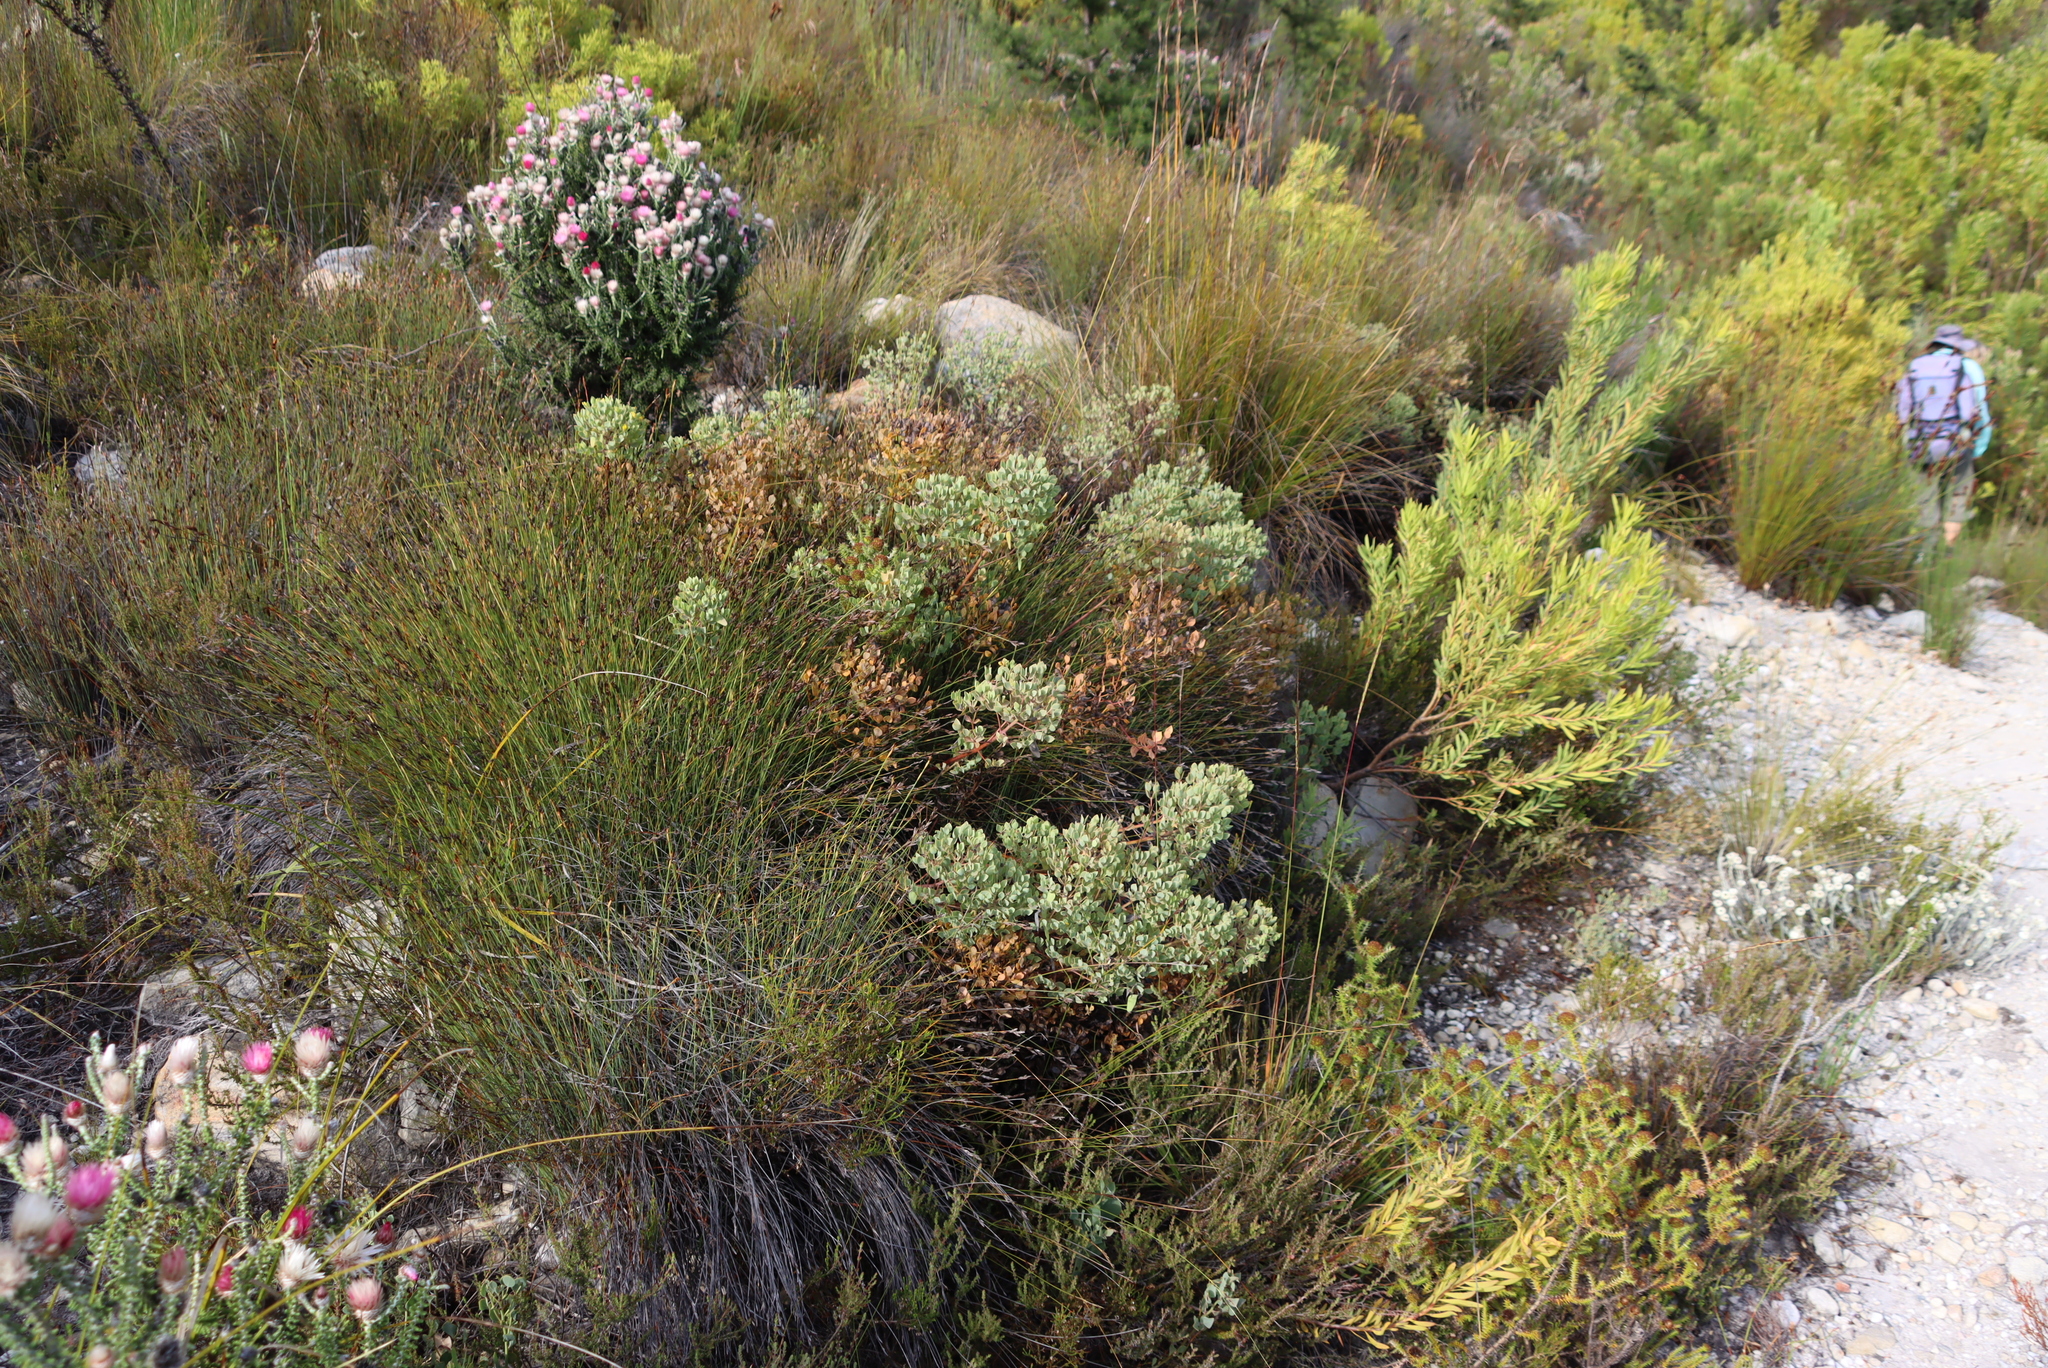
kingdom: Plantae
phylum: Tracheophyta
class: Magnoliopsida
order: Asterales
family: Asteraceae
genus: Phaenocoma
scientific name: Phaenocoma prolifera
